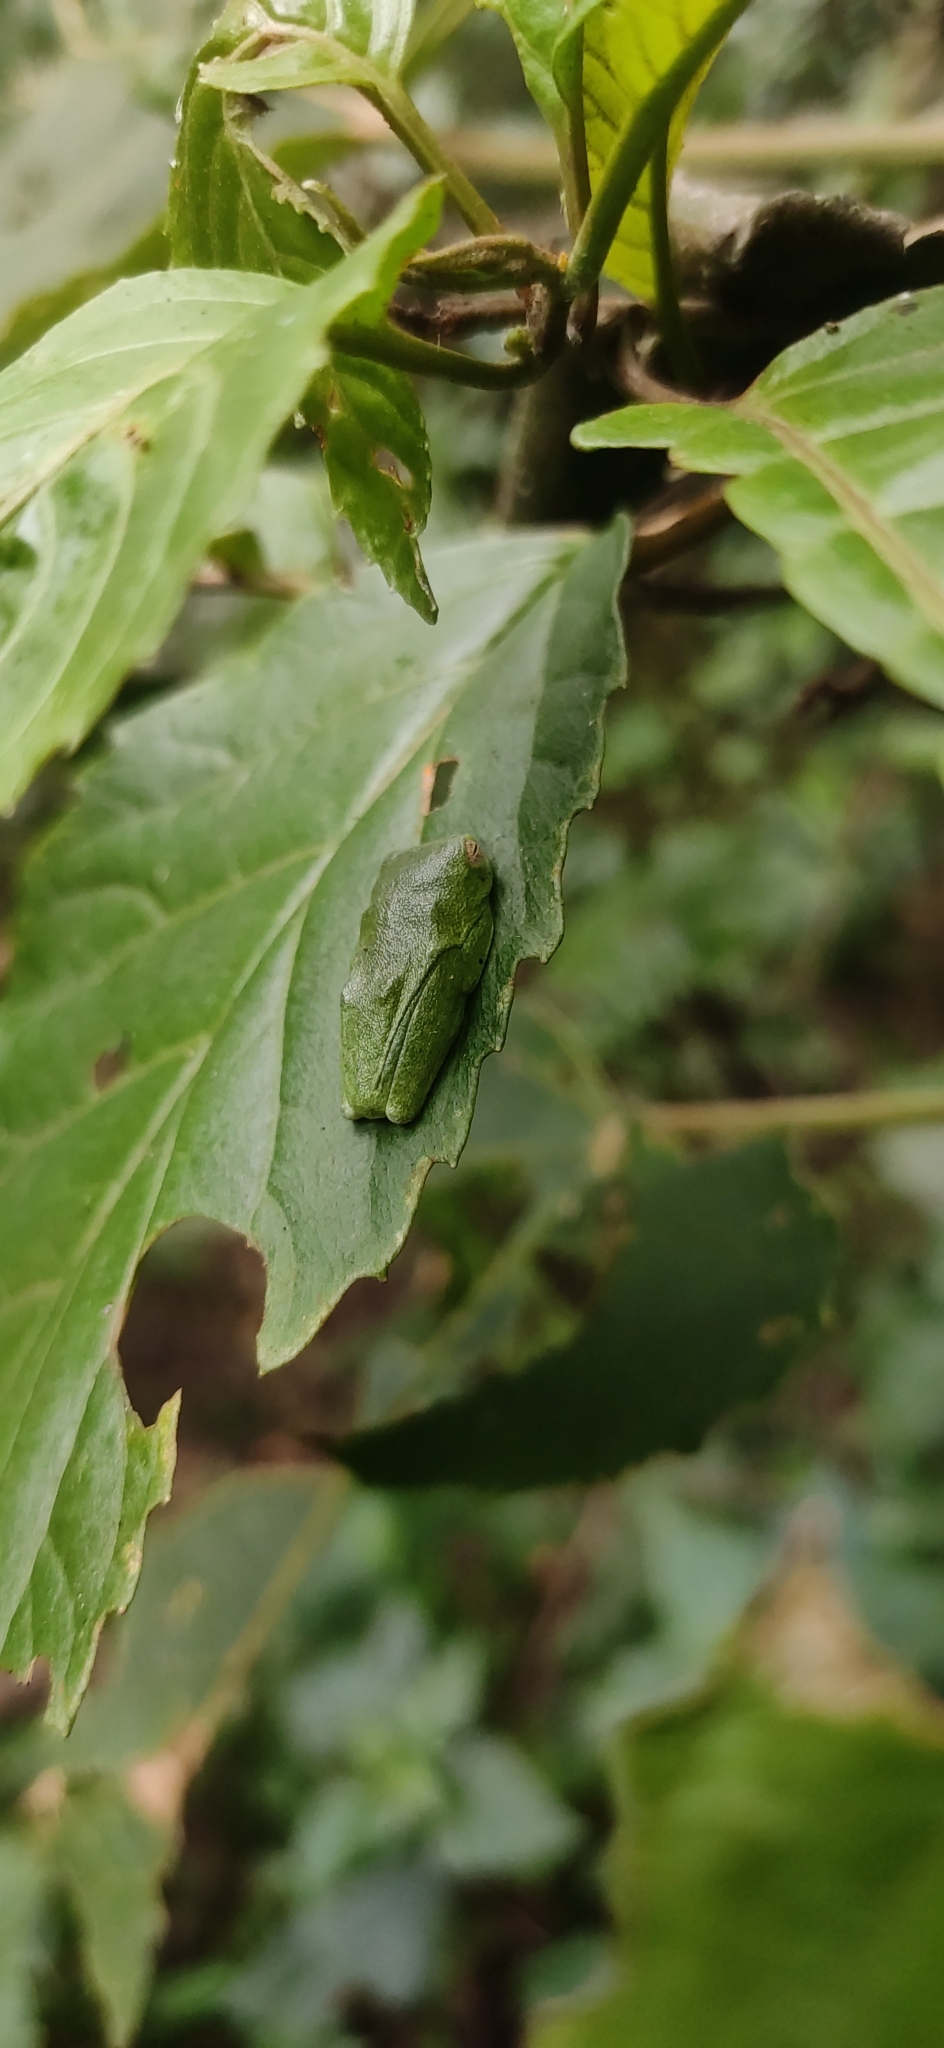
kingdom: Animalia
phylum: Chordata
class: Amphibia
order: Anura
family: Rhacophoridae
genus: Raorchestes
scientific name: Raorchestes jayarami
